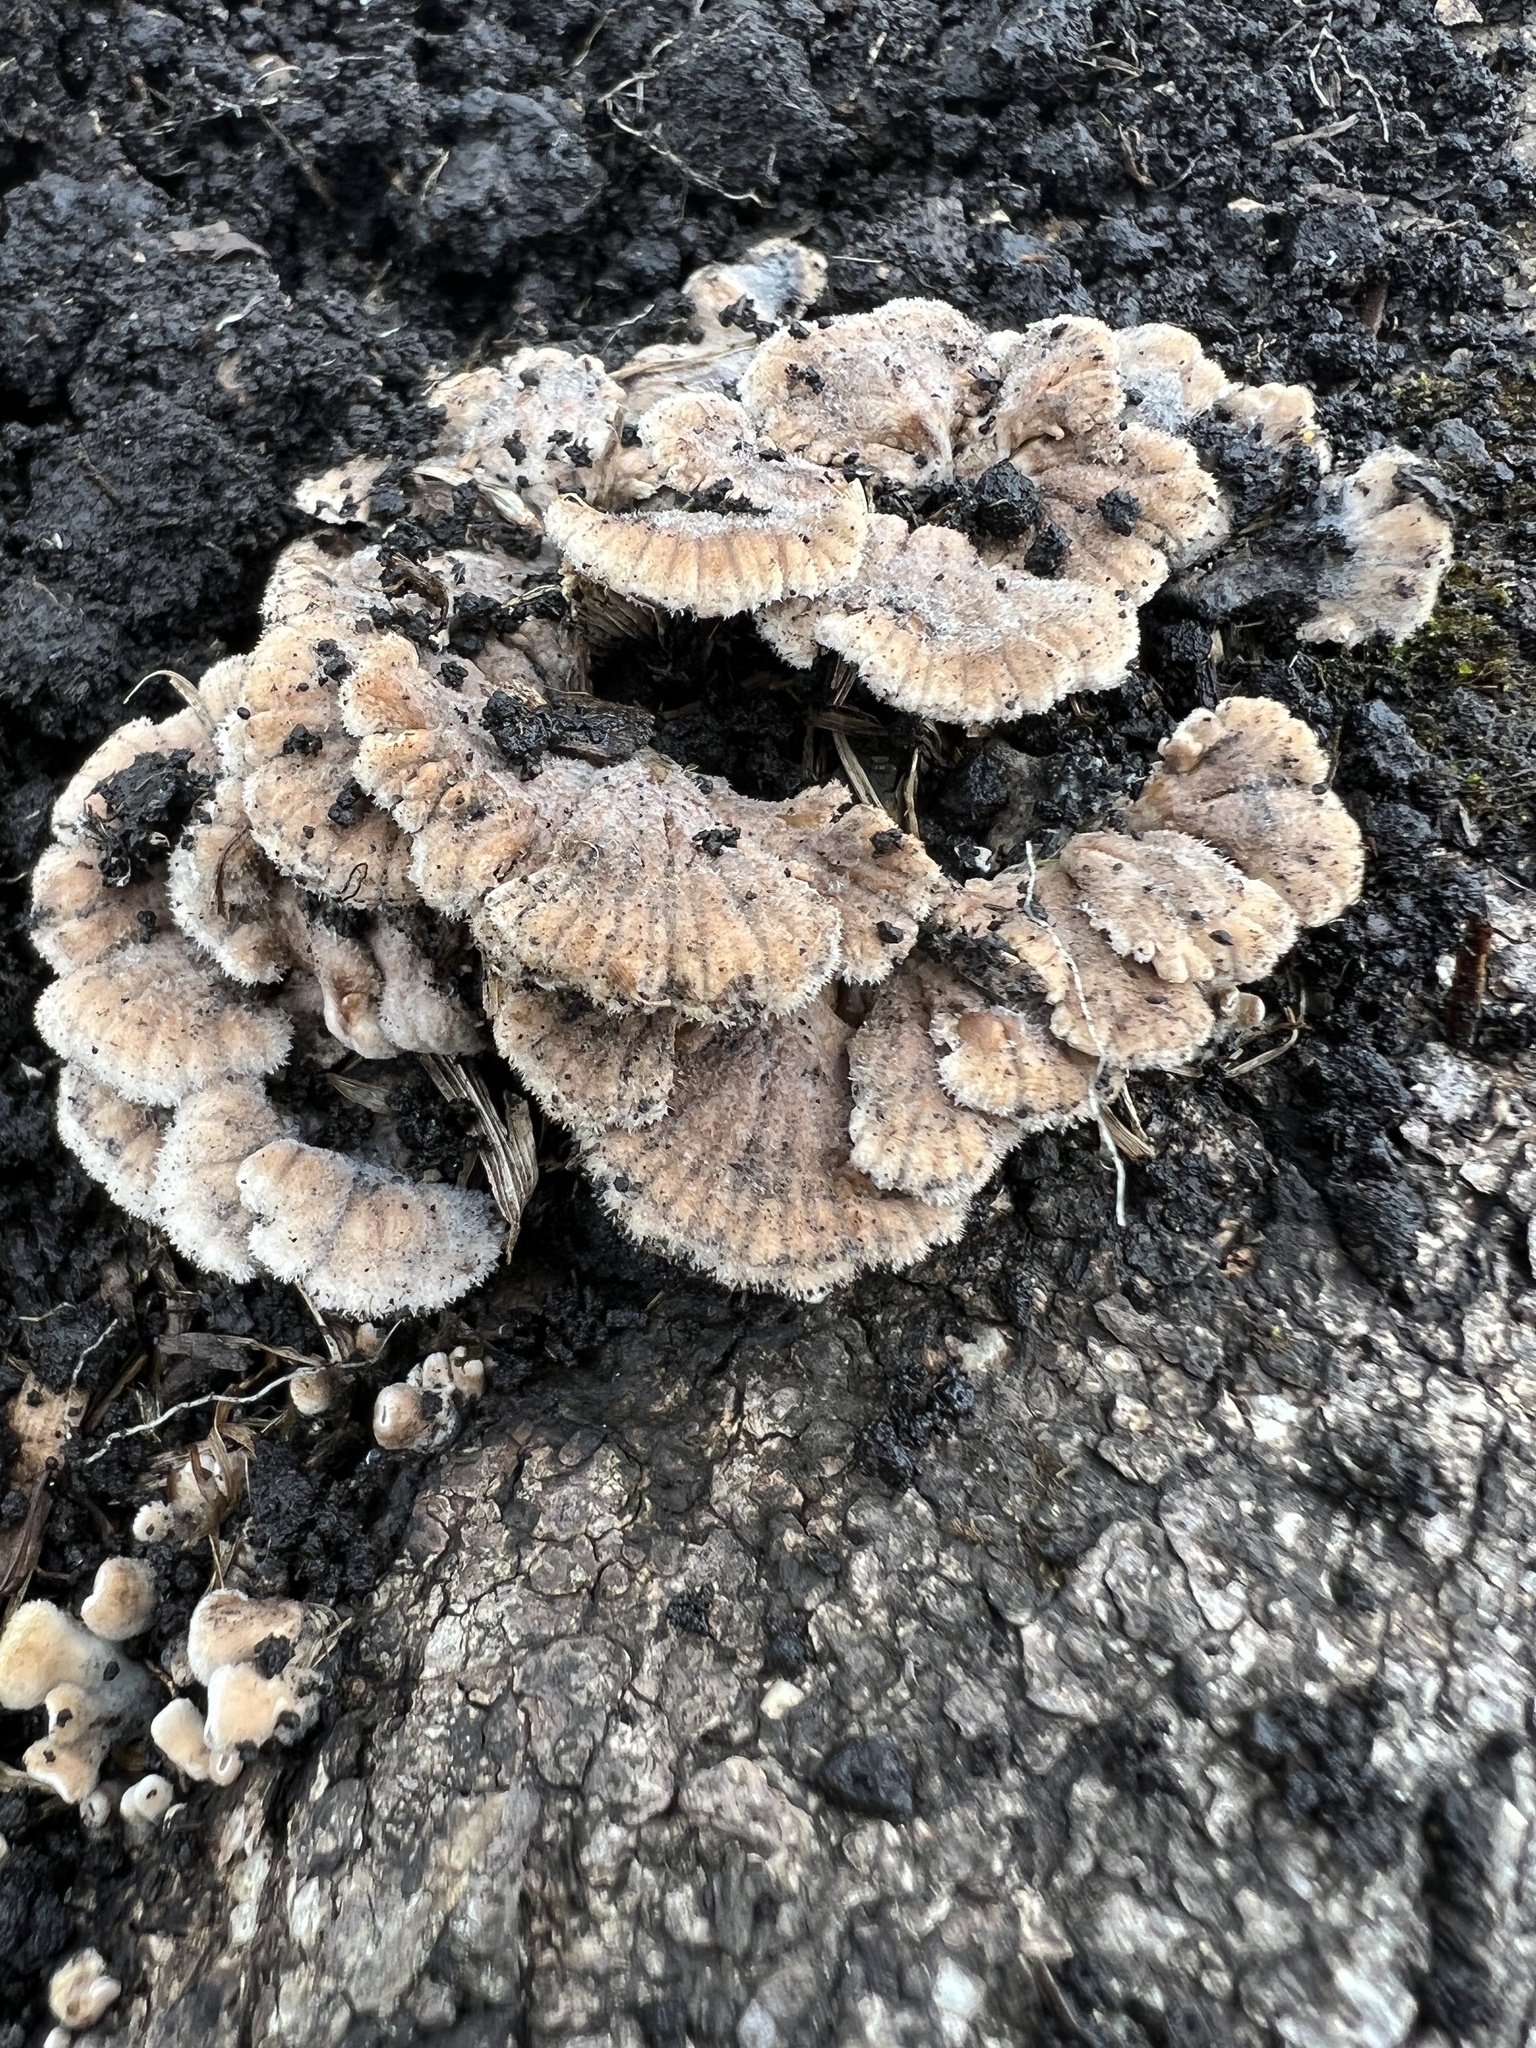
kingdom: Fungi
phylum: Basidiomycota
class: Agaricomycetes
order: Agaricales
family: Schizophyllaceae
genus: Schizophyllum
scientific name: Schizophyllum commune
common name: Common porecrust
